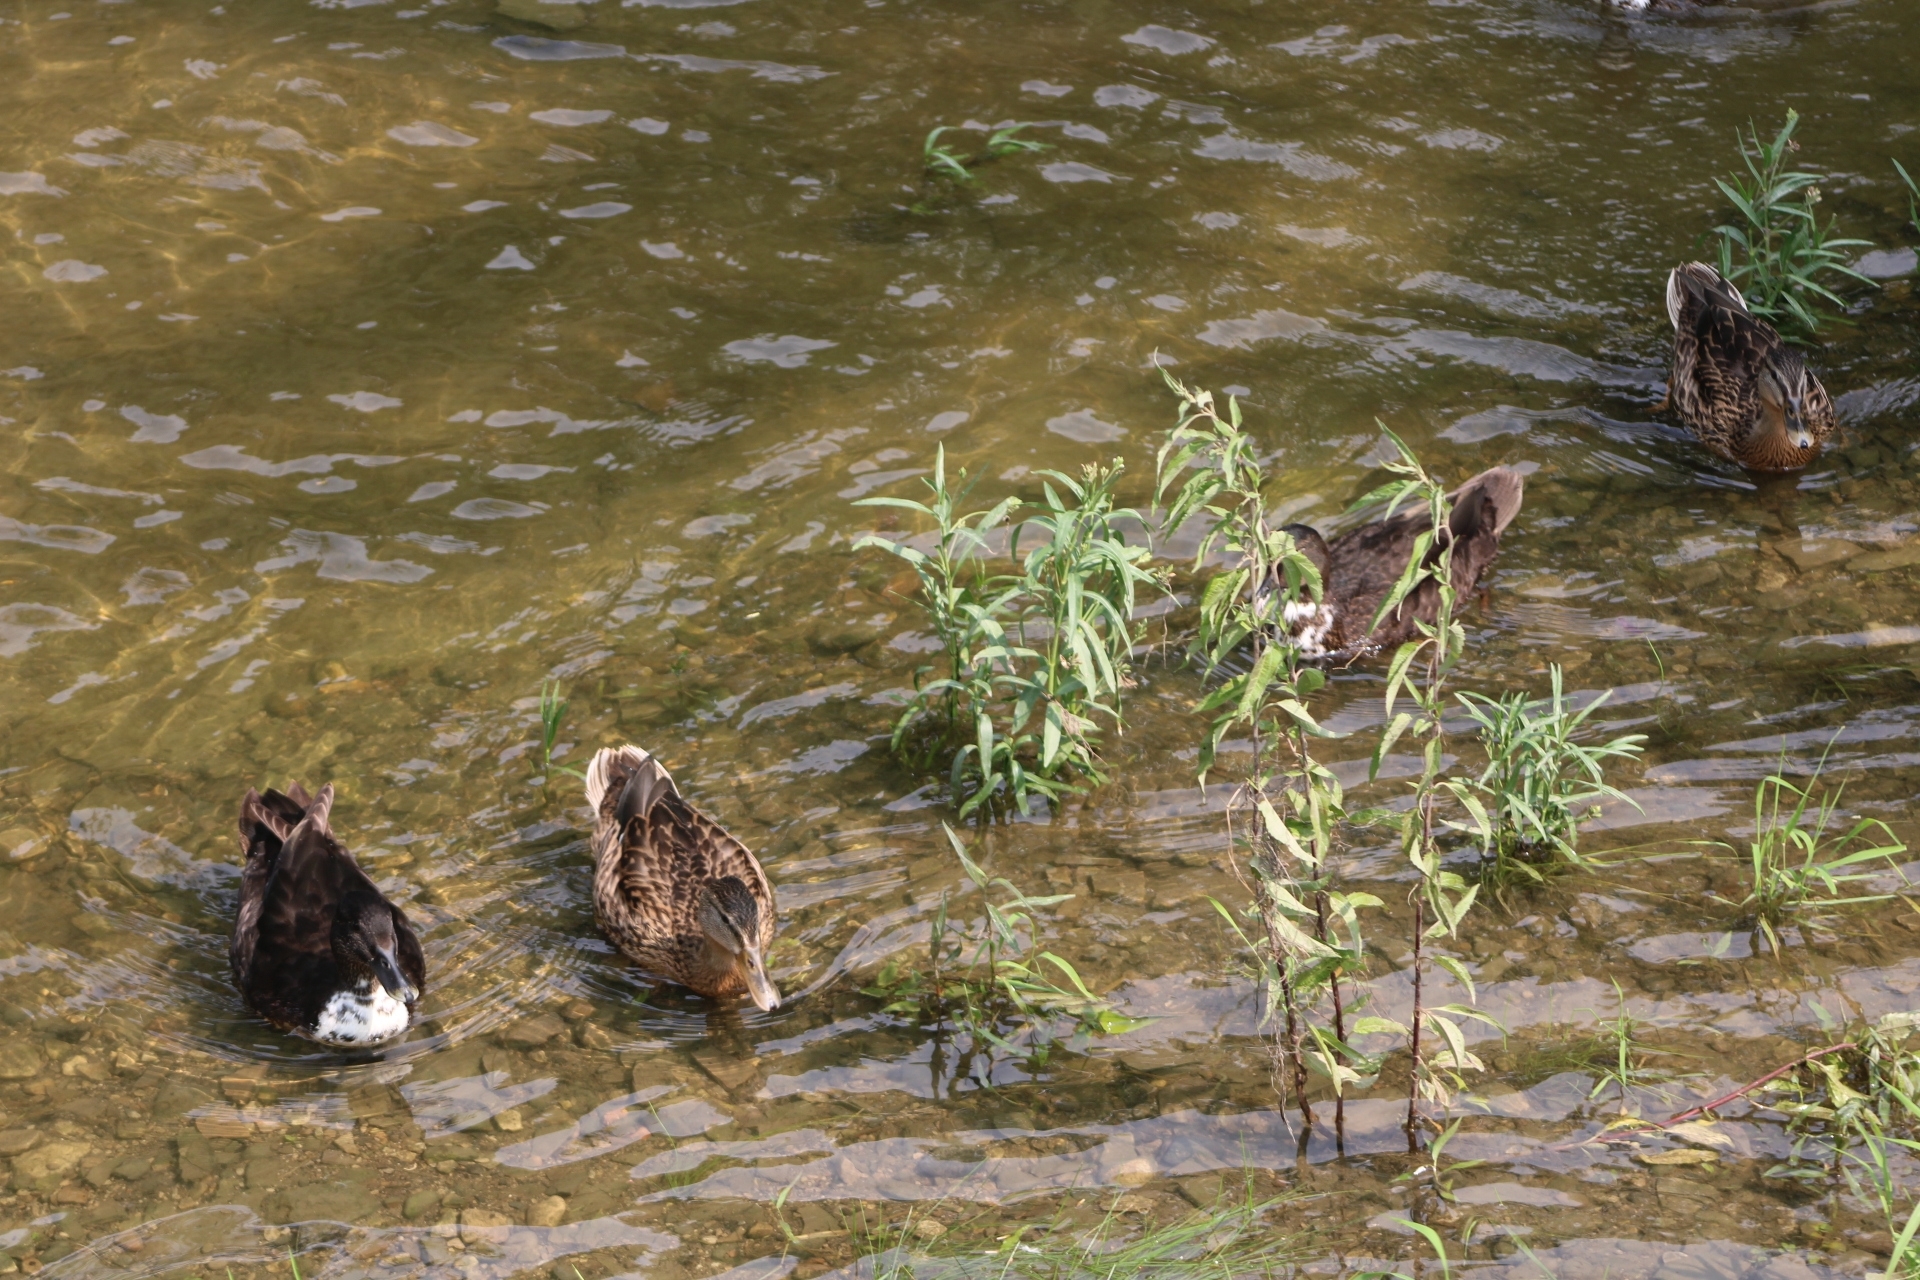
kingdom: Animalia
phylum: Chordata
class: Aves
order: Anseriformes
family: Anatidae
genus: Anas
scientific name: Anas platyrhynchos
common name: Mallard
